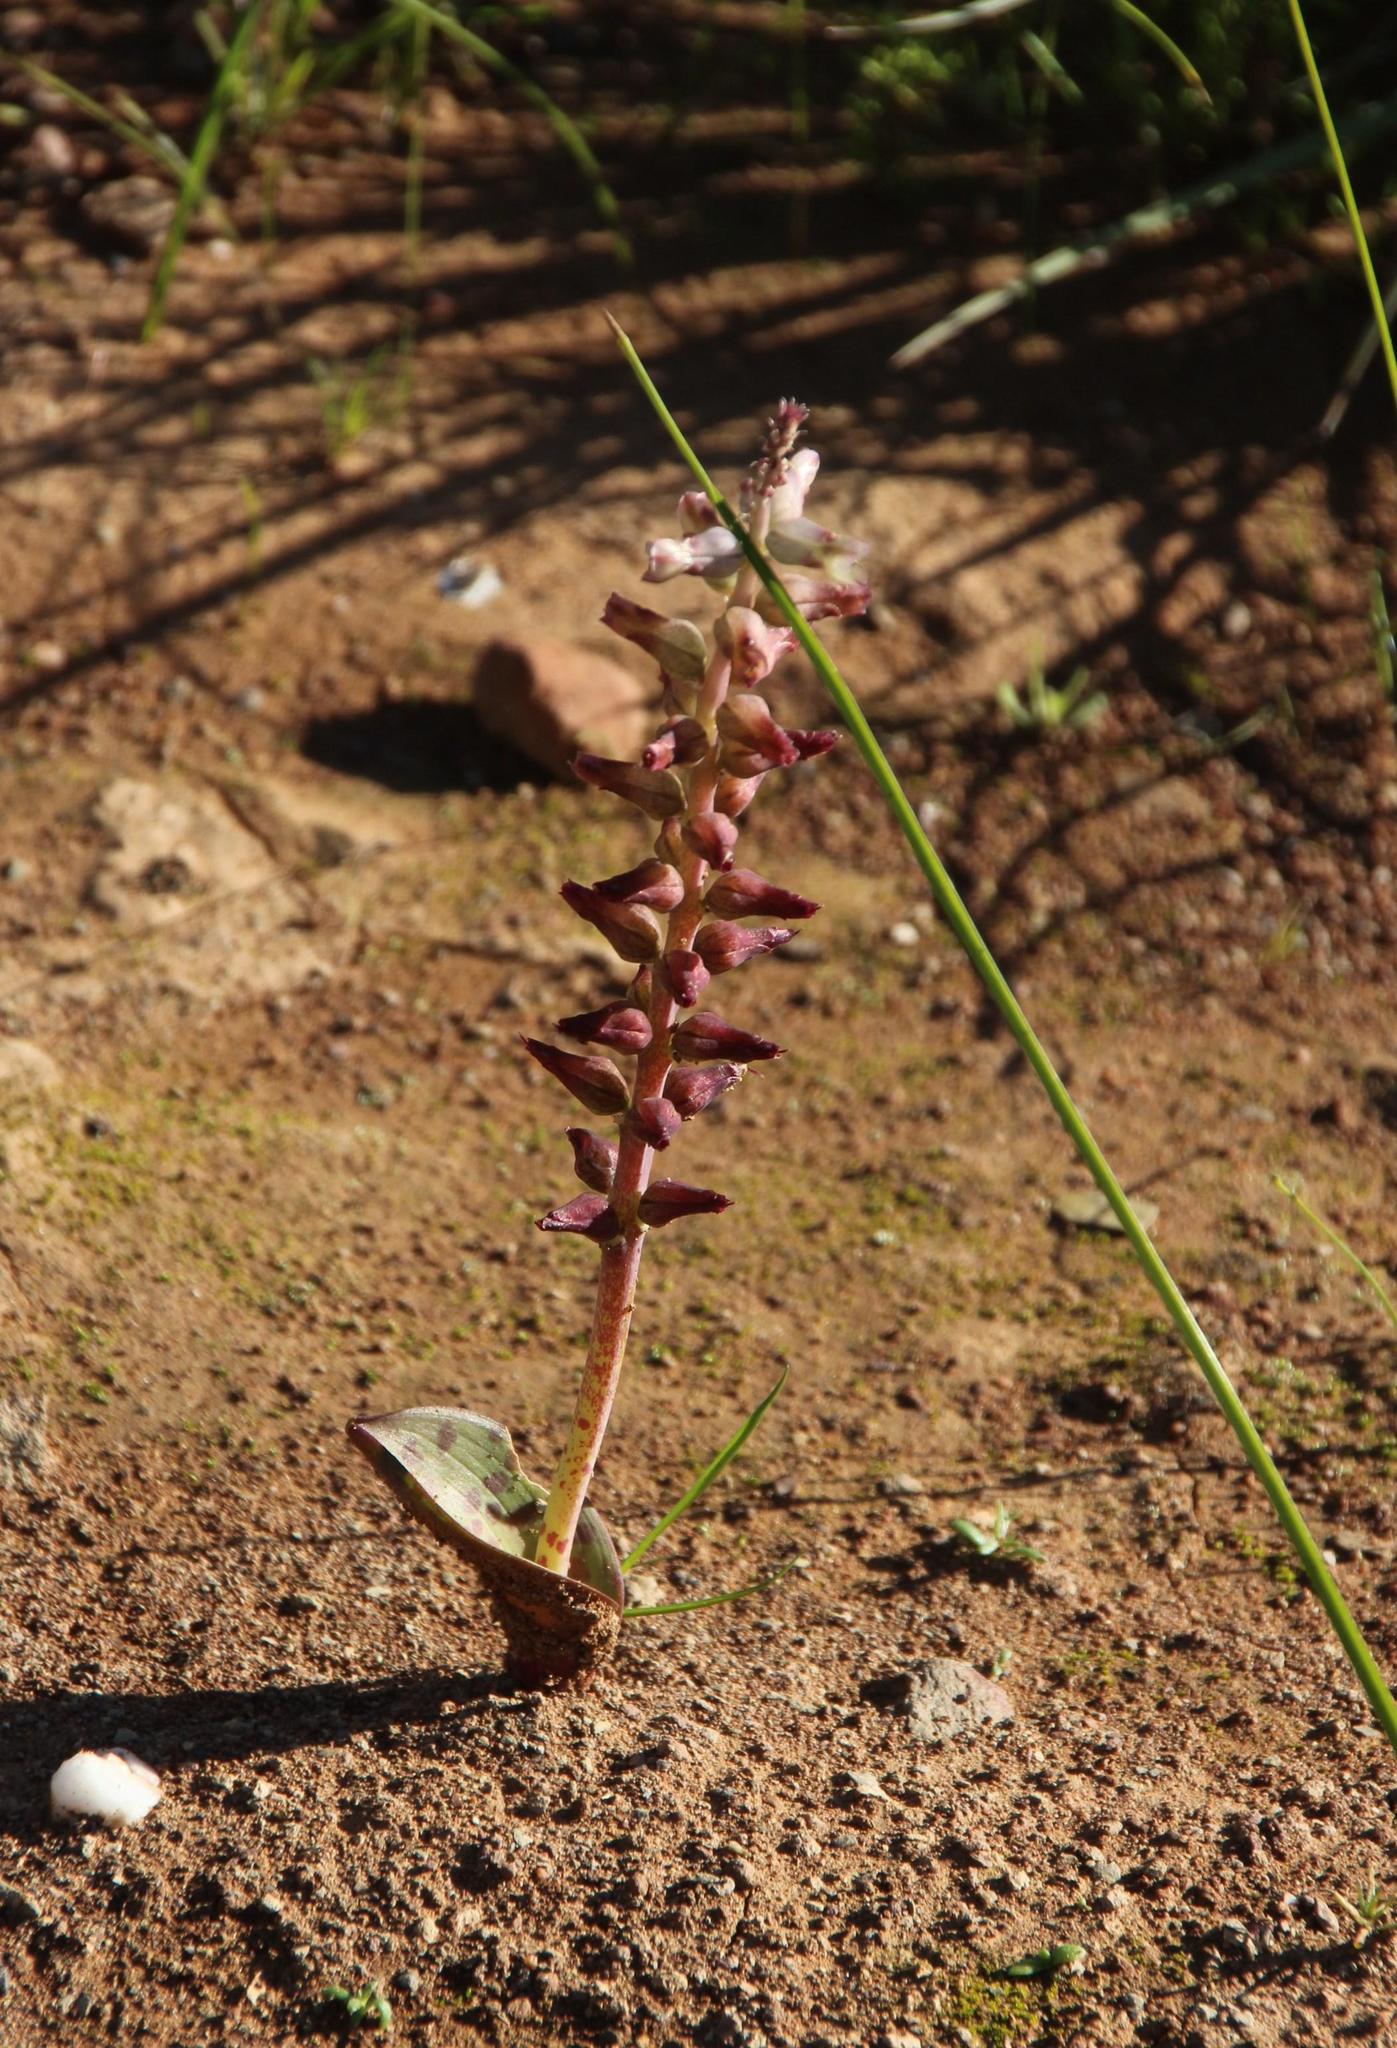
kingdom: Plantae
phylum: Tracheophyta
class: Liliopsida
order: Asparagales
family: Asparagaceae
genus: Lachenalia
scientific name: Lachenalia aurioliae
